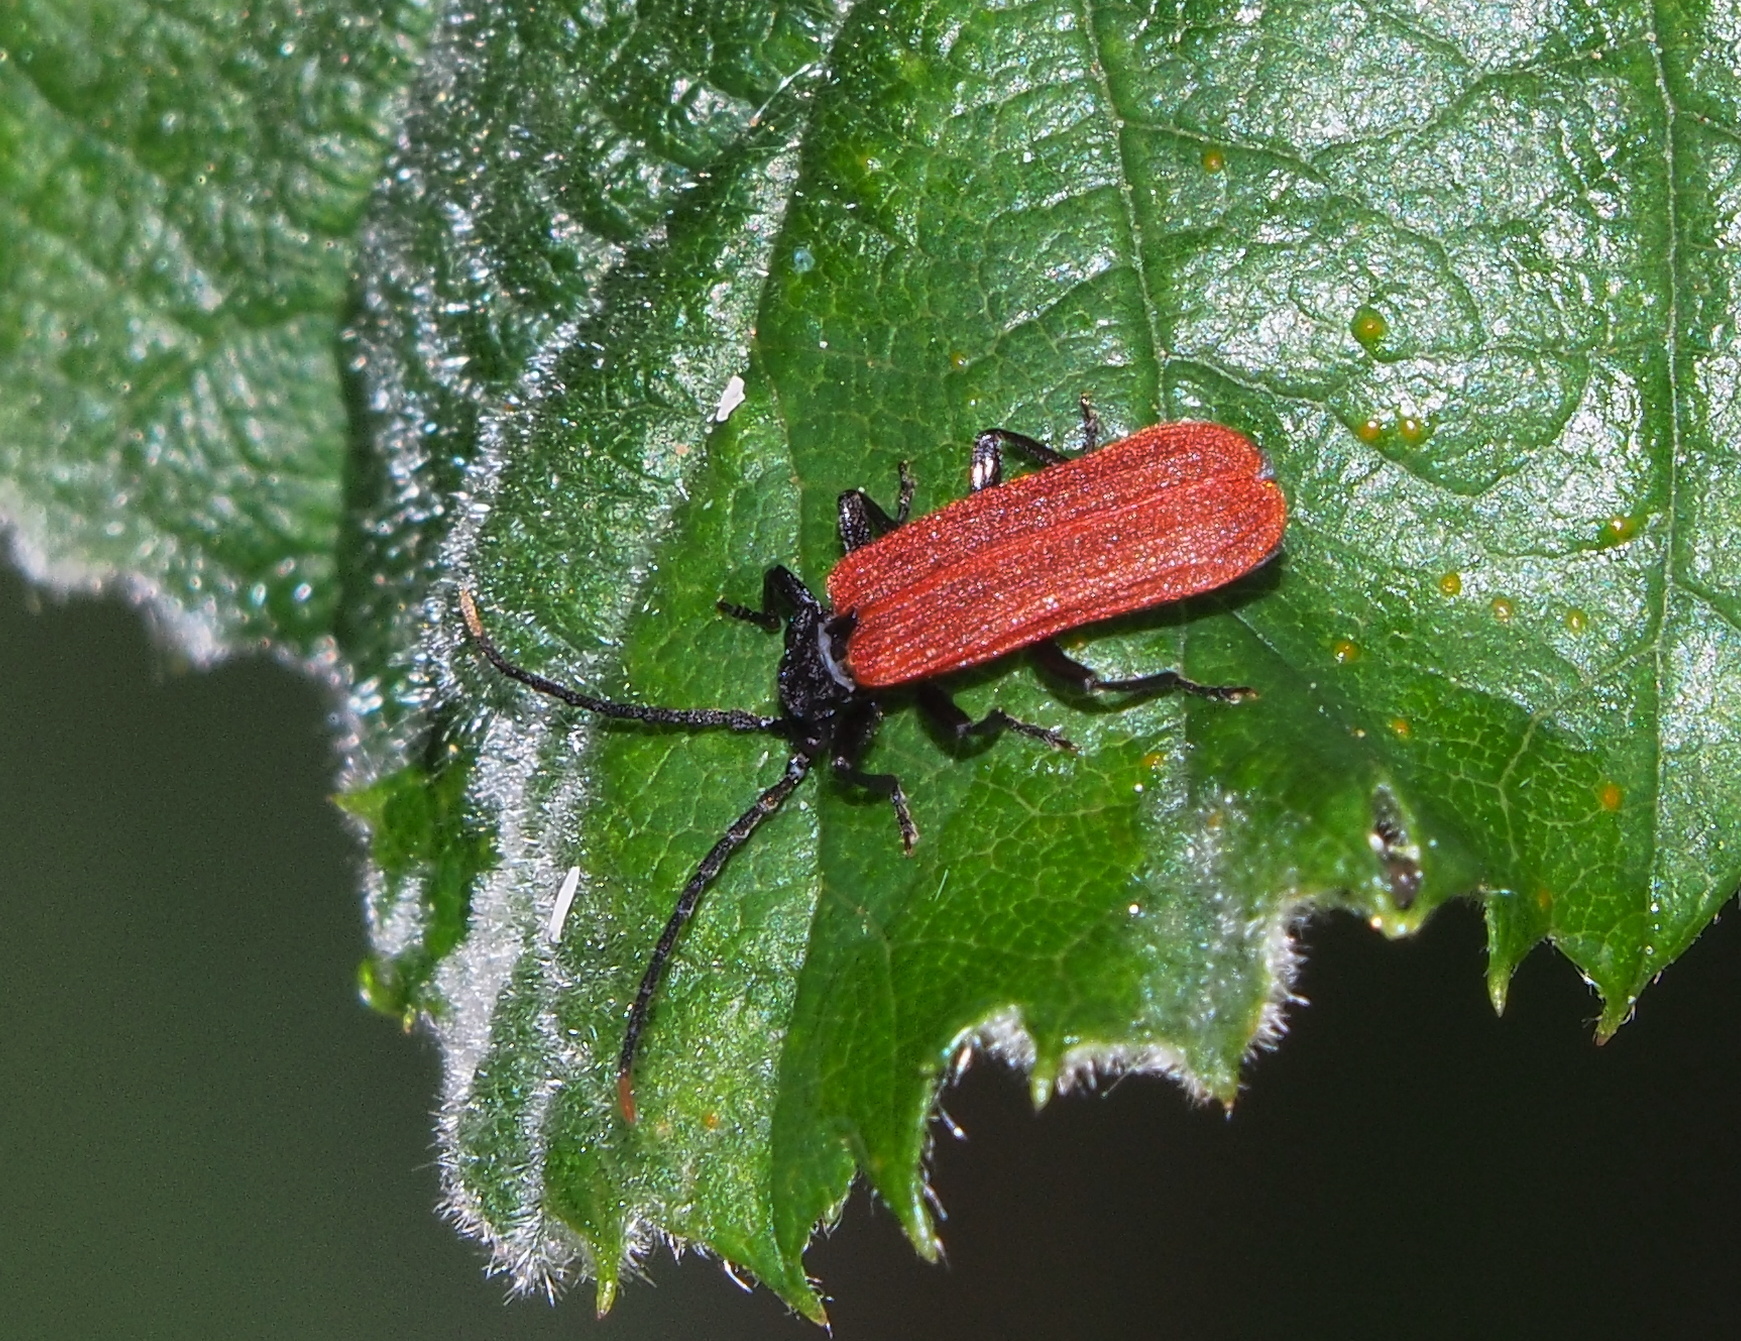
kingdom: Animalia
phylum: Arthropoda
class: Insecta
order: Coleoptera
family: Lycidae
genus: Platycis
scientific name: Platycis minutus
